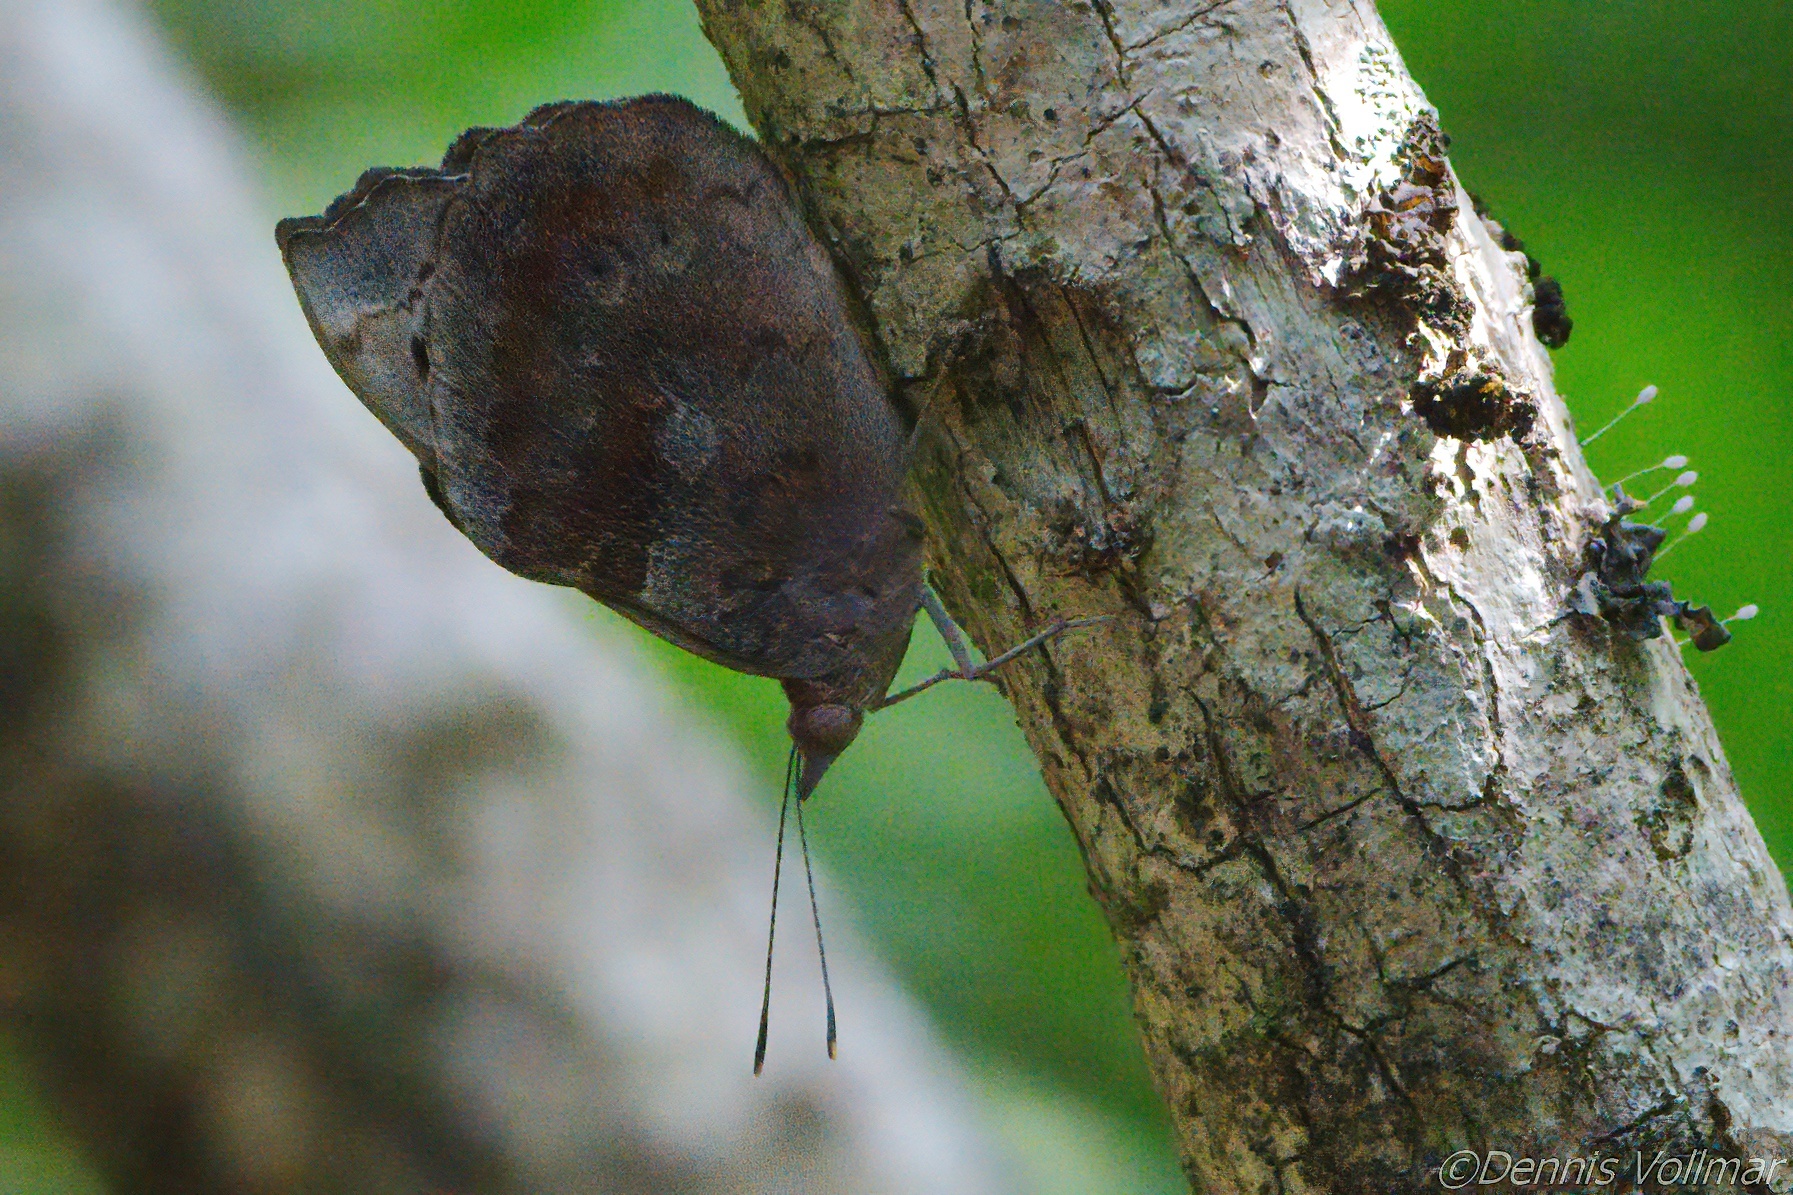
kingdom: Animalia
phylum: Arthropoda
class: Insecta
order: Lepidoptera
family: Nymphalidae
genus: Eunica
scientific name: Eunica tatila
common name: Florida purplewing
